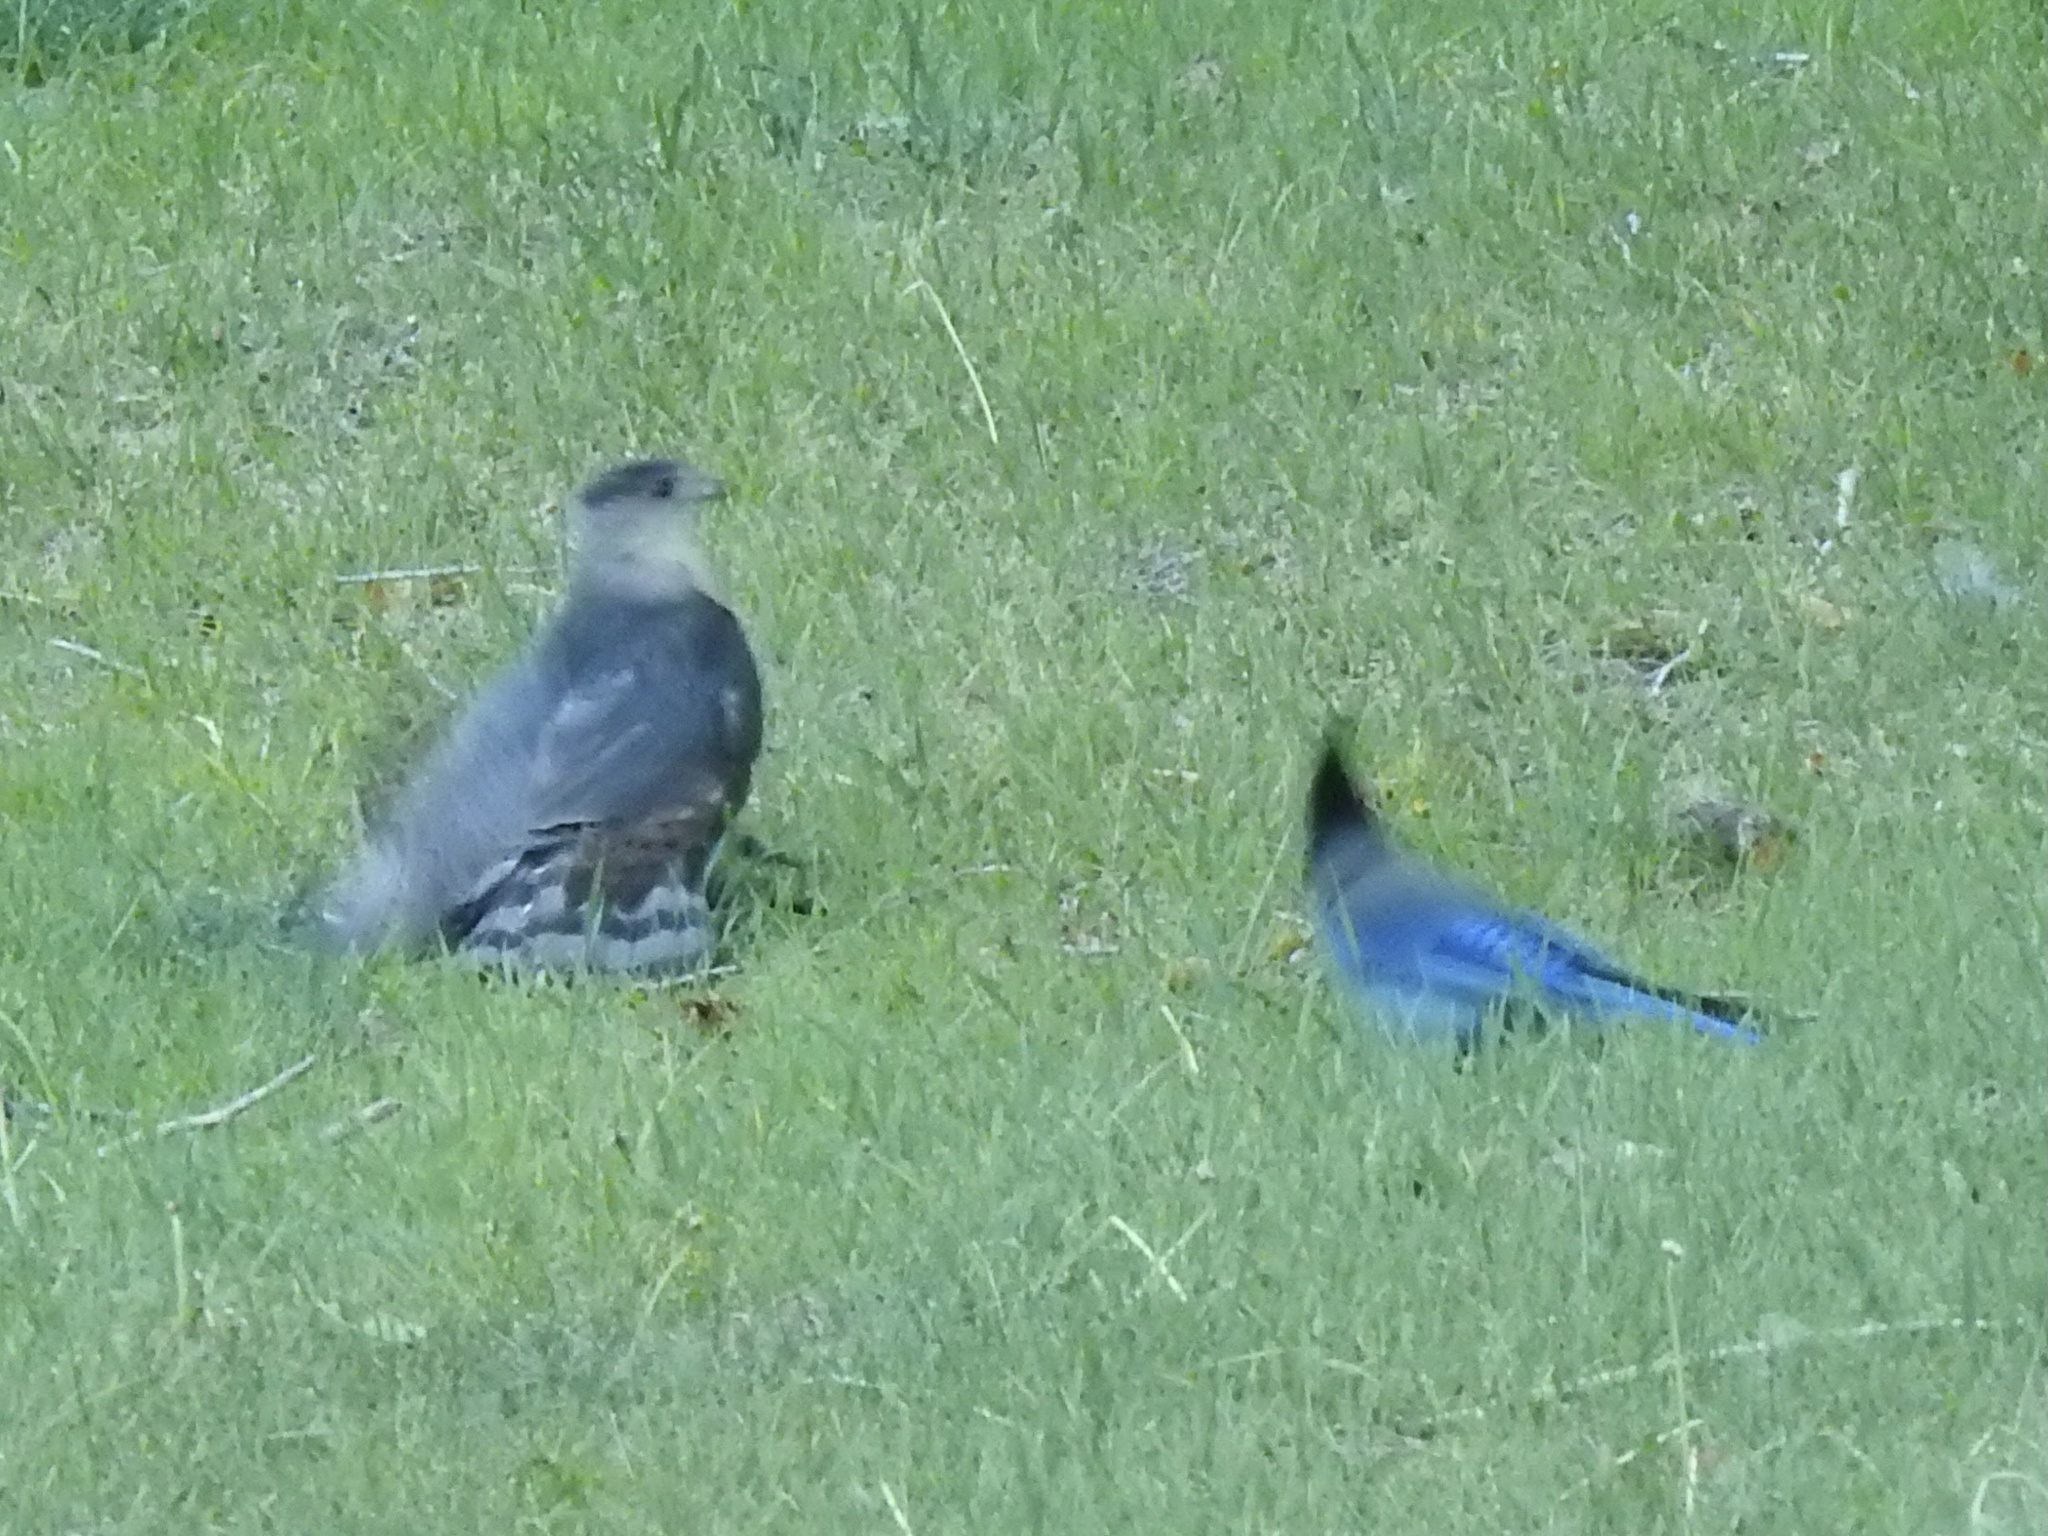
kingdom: Animalia
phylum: Chordata
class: Aves
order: Accipitriformes
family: Accipitridae
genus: Accipiter
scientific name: Accipiter cooperii
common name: Cooper's hawk
